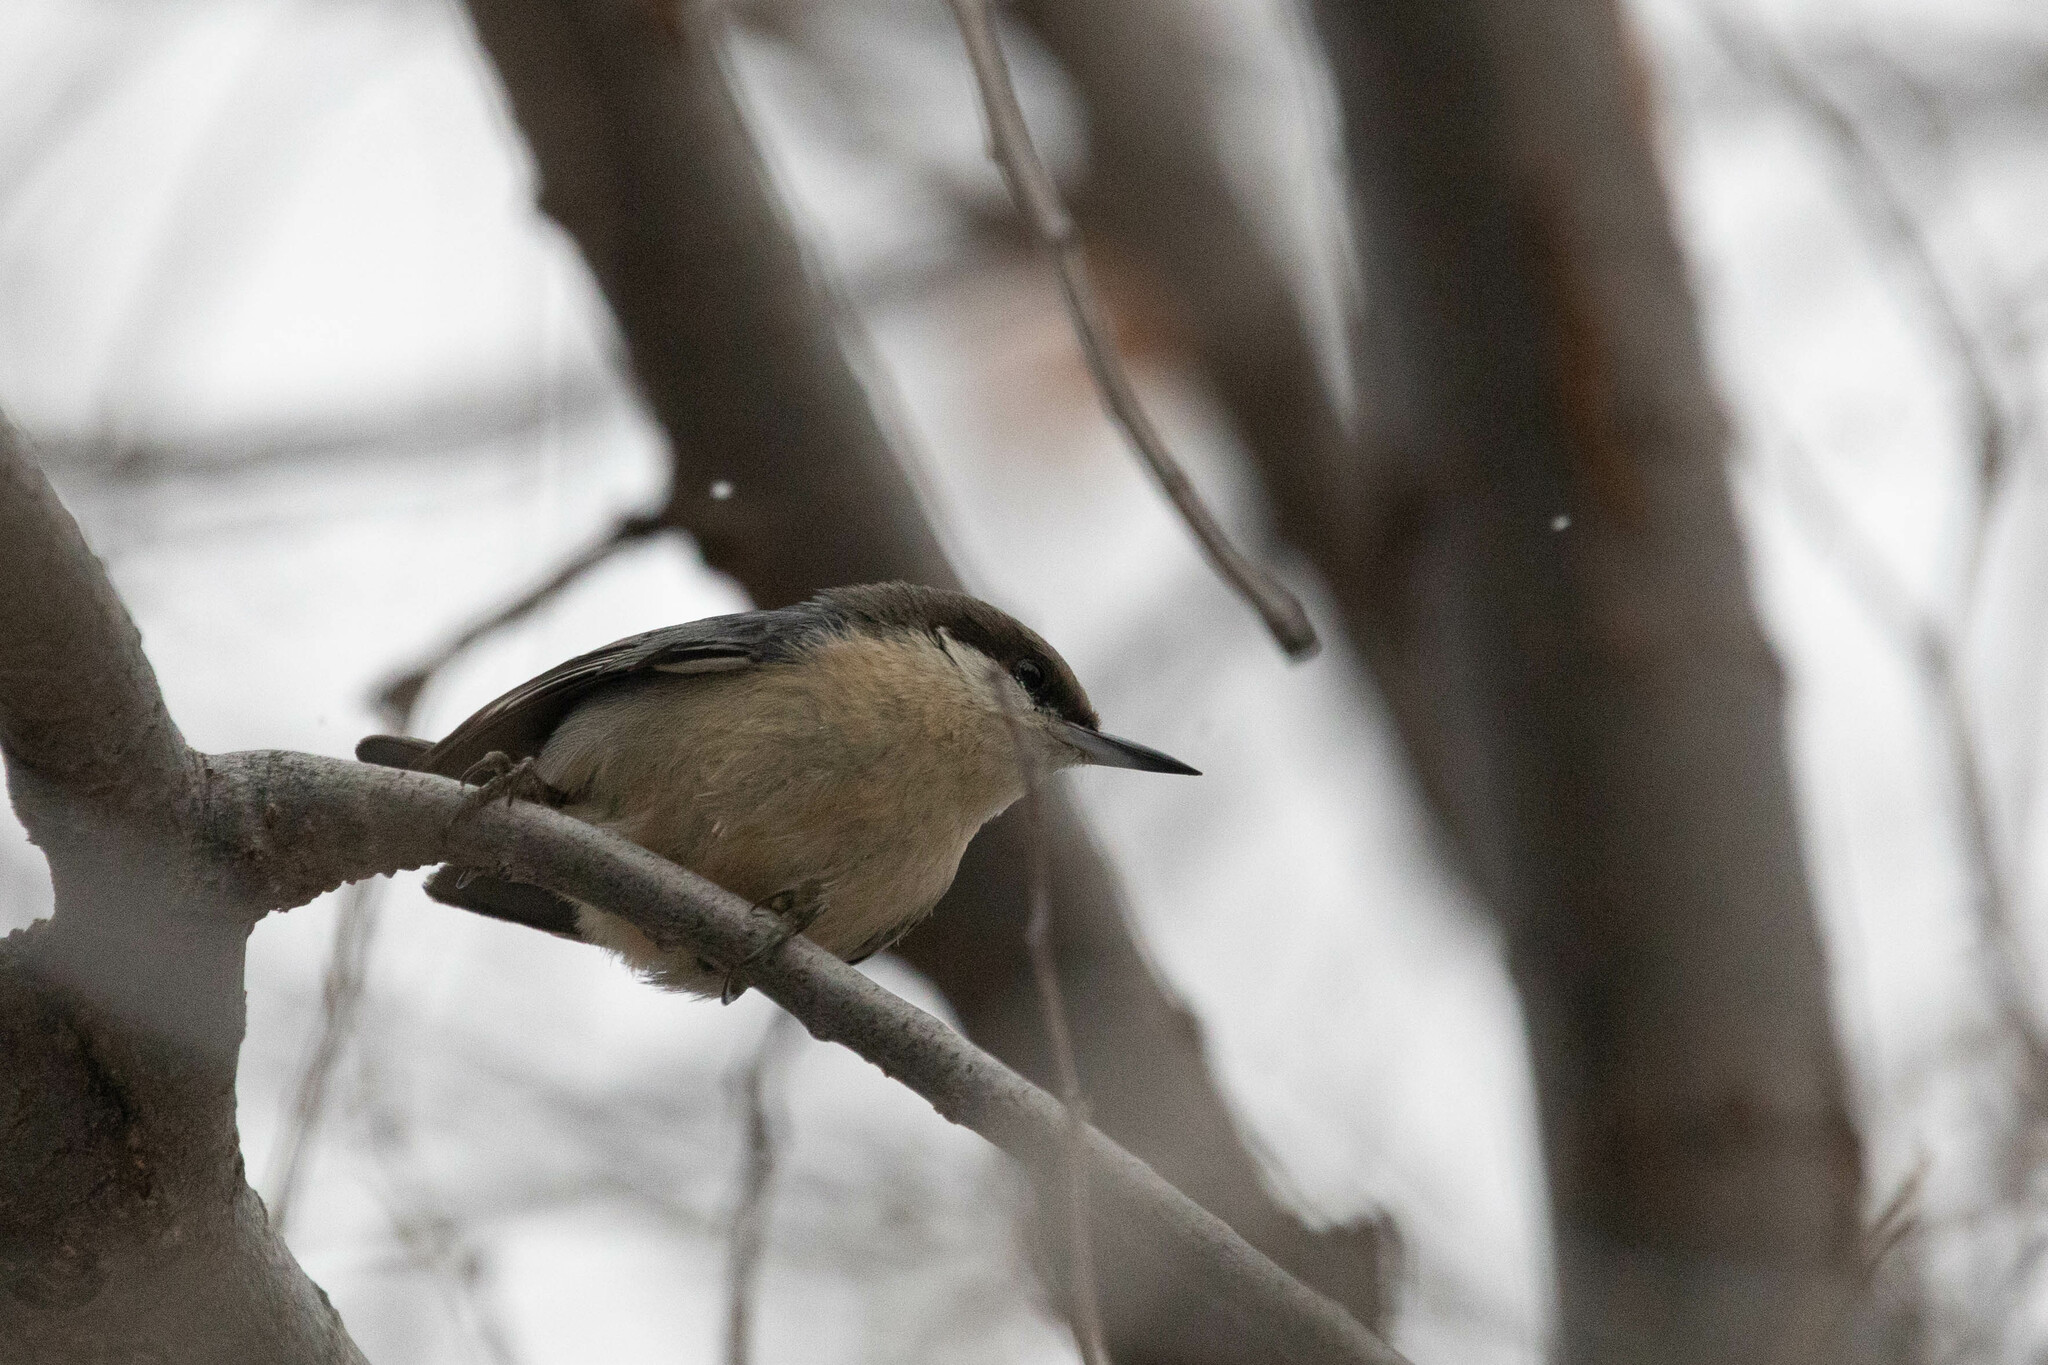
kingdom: Animalia
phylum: Chordata
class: Aves
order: Passeriformes
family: Sittidae
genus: Sitta
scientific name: Sitta pygmaea
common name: Pygmy nuthatch
